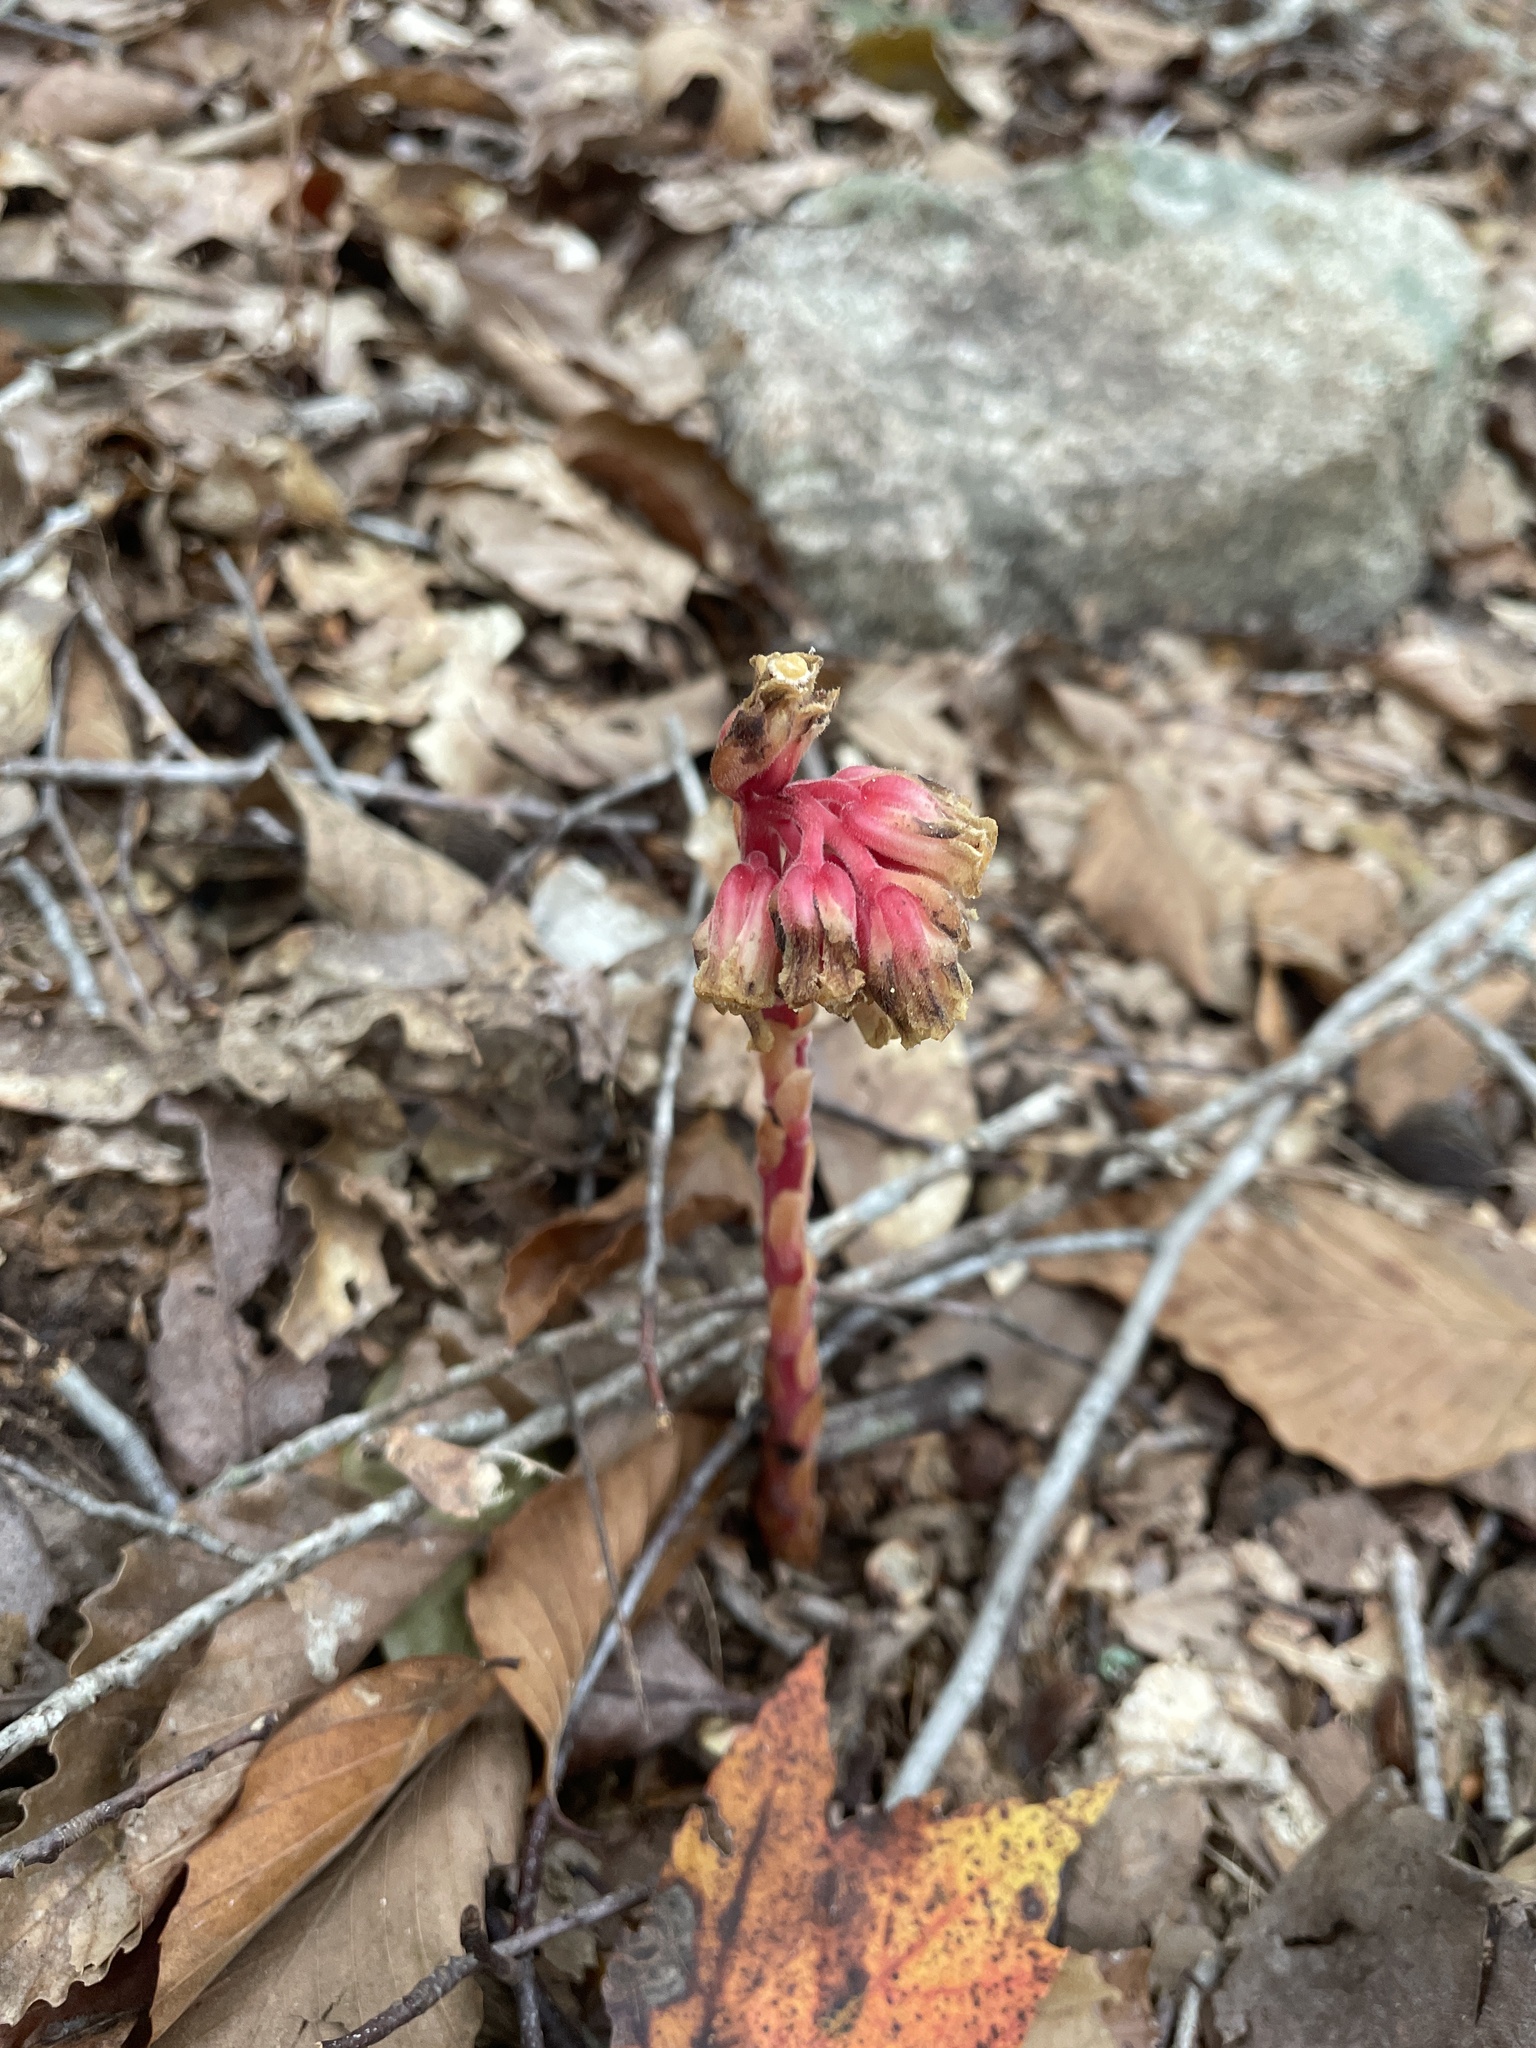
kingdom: Plantae
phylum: Tracheophyta
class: Magnoliopsida
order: Ericales
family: Ericaceae
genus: Hypopitys
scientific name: Hypopitys monotropa
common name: Yellow bird's-nest
